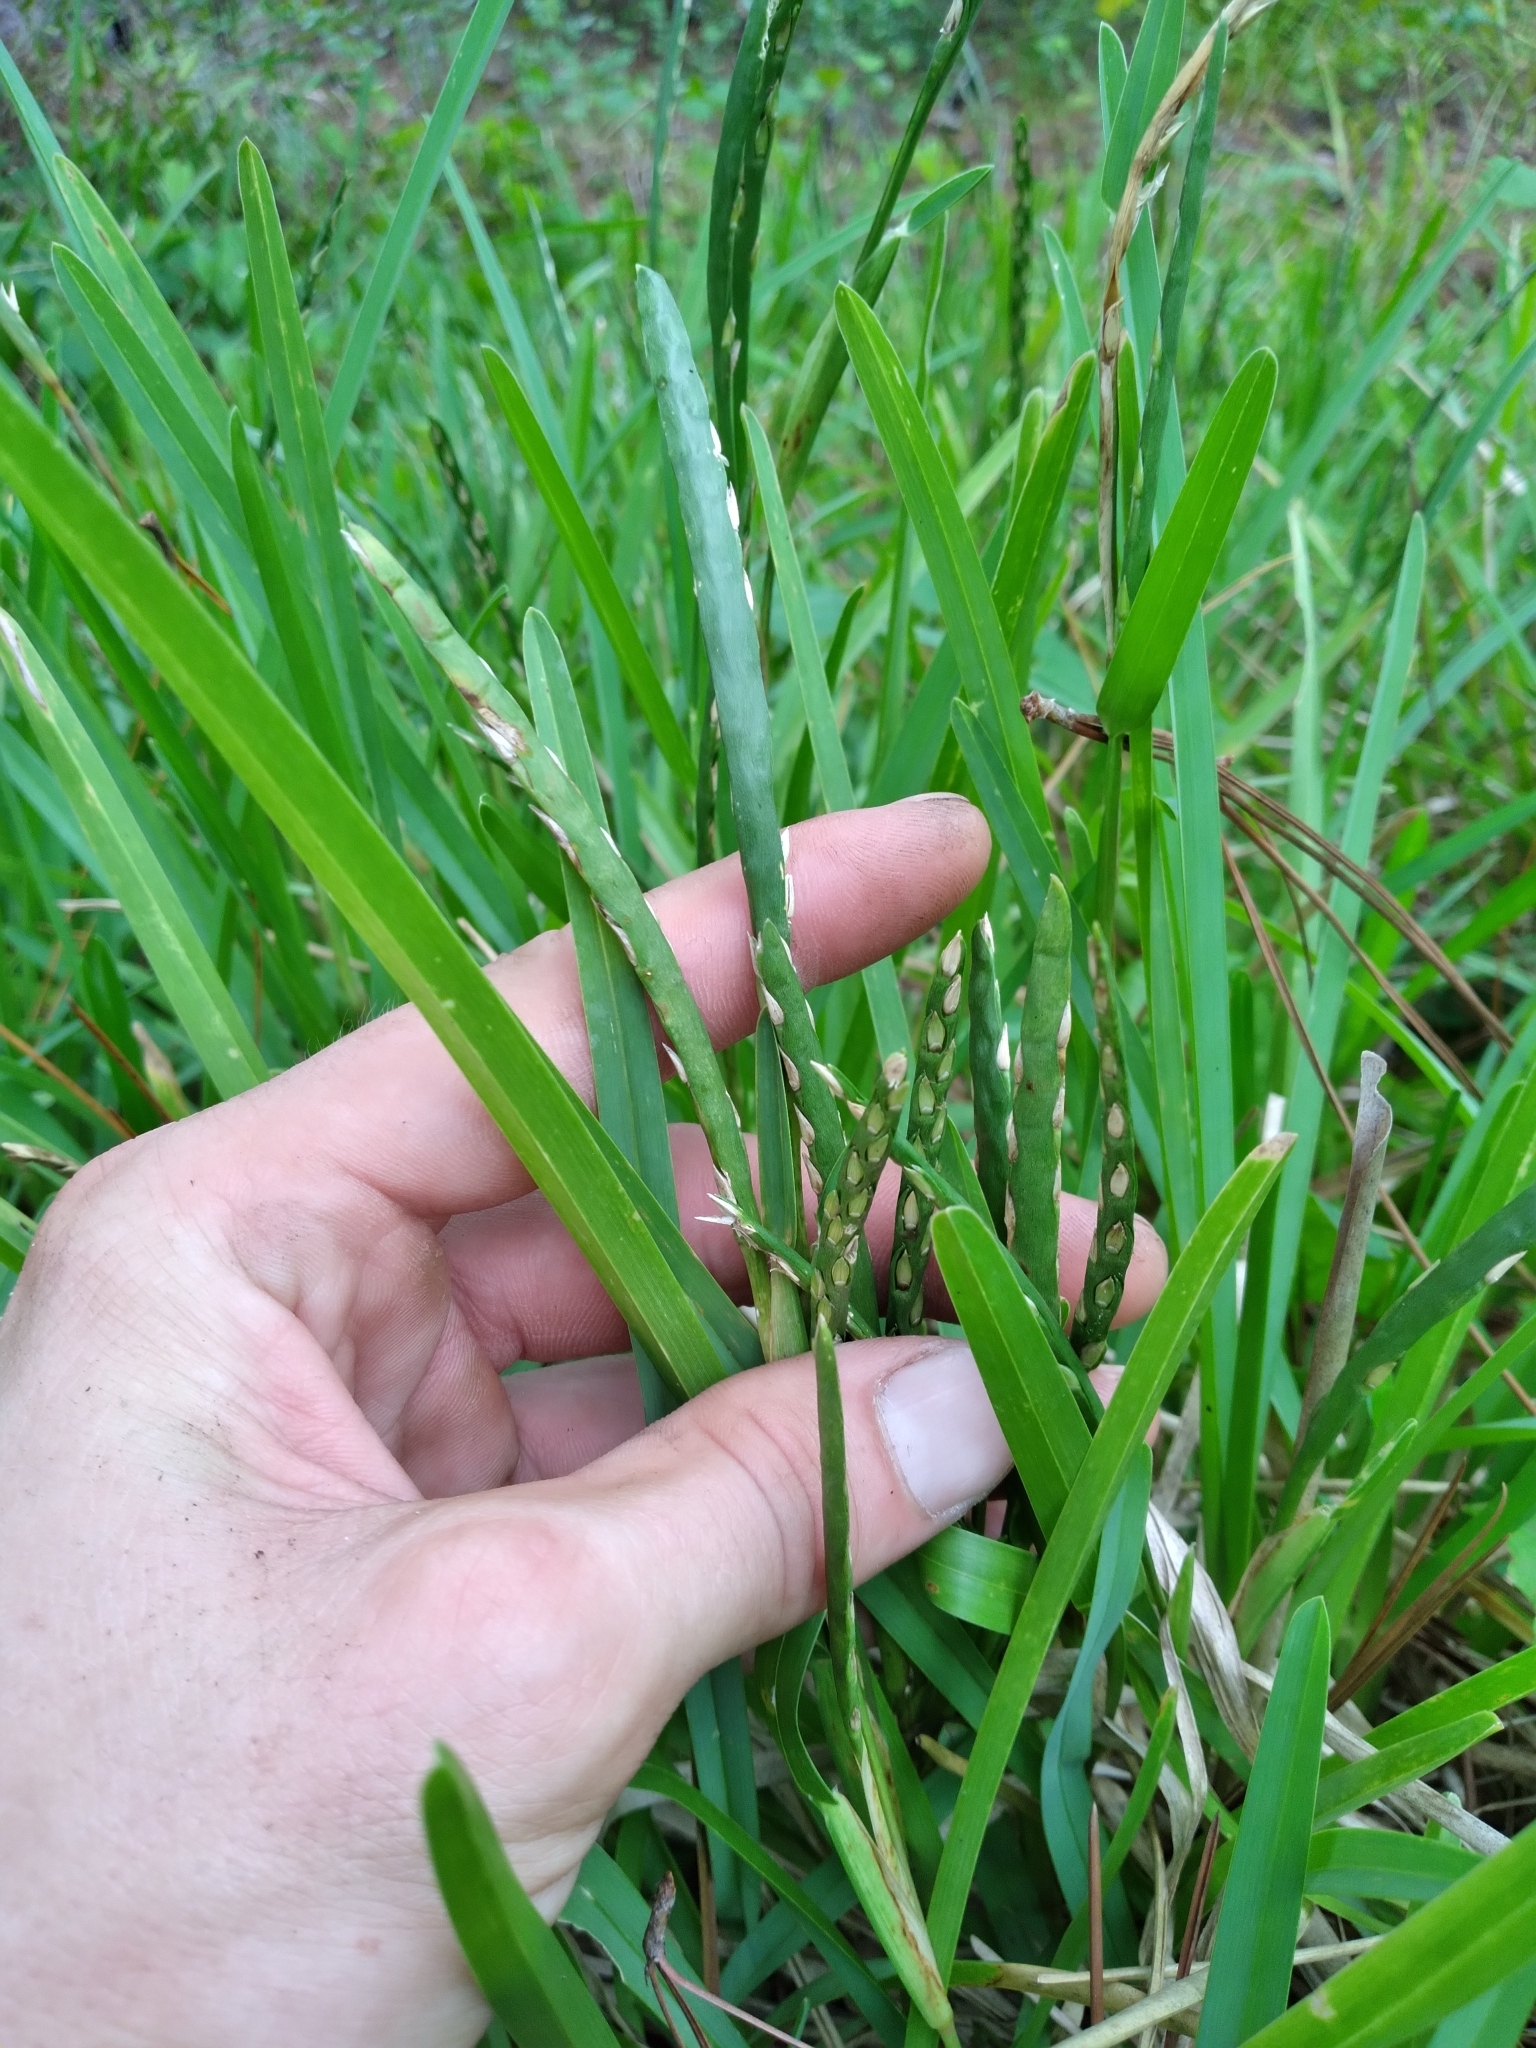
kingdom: Plantae
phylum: Tracheophyta
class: Liliopsida
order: Poales
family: Poaceae
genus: Stenotaphrum
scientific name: Stenotaphrum secundatum
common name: St. augustine grass
